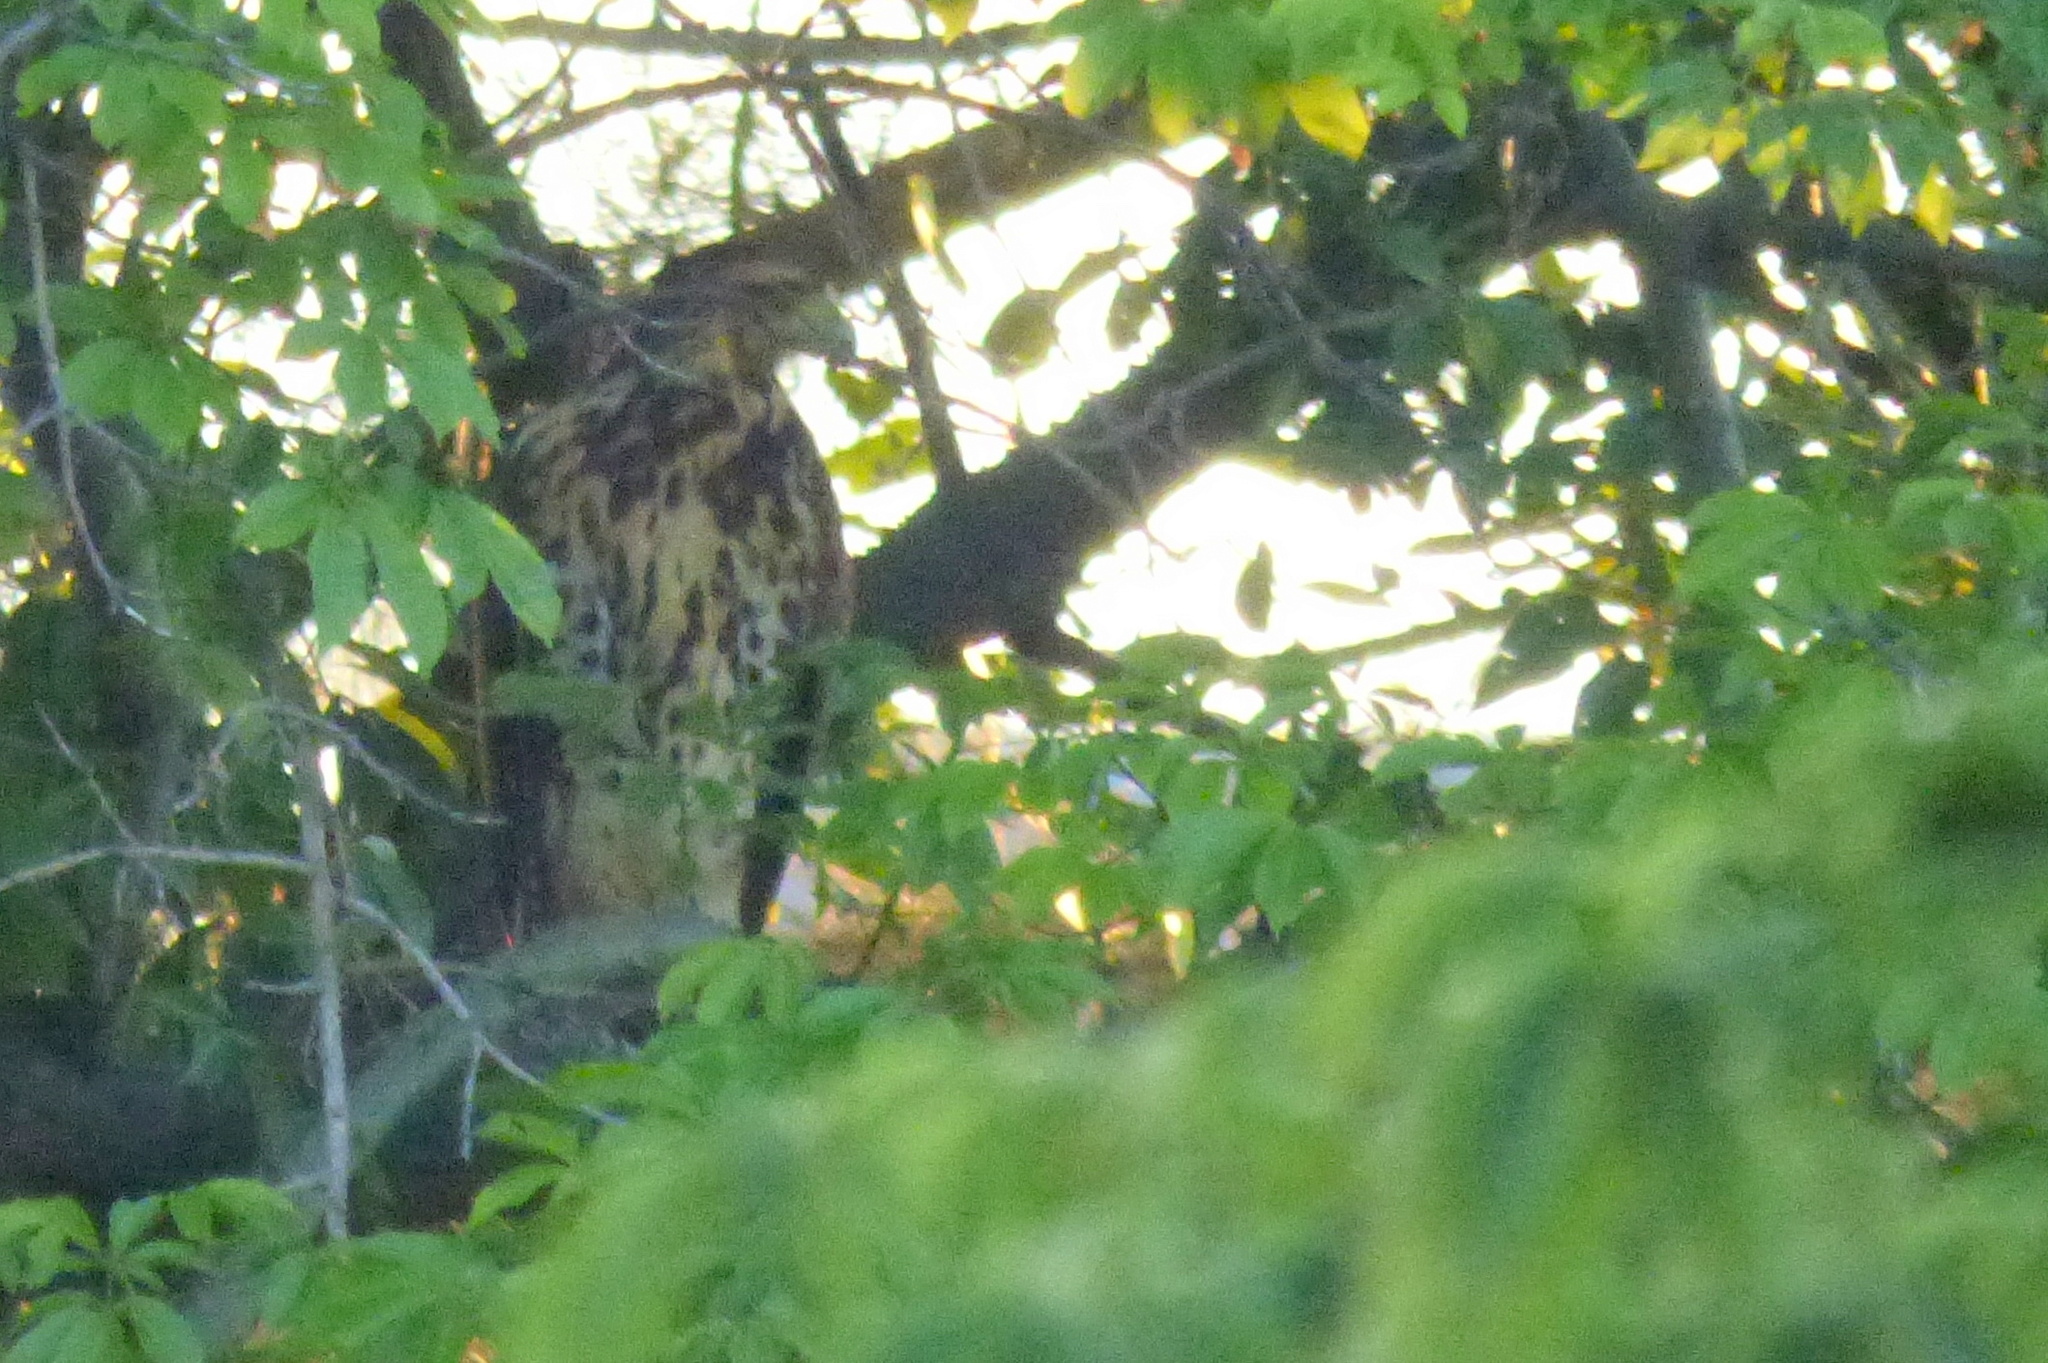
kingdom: Animalia
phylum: Chordata
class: Aves
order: Accipitriformes
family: Accipitridae
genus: Parabuteo
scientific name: Parabuteo unicinctus
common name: Harris's hawk
